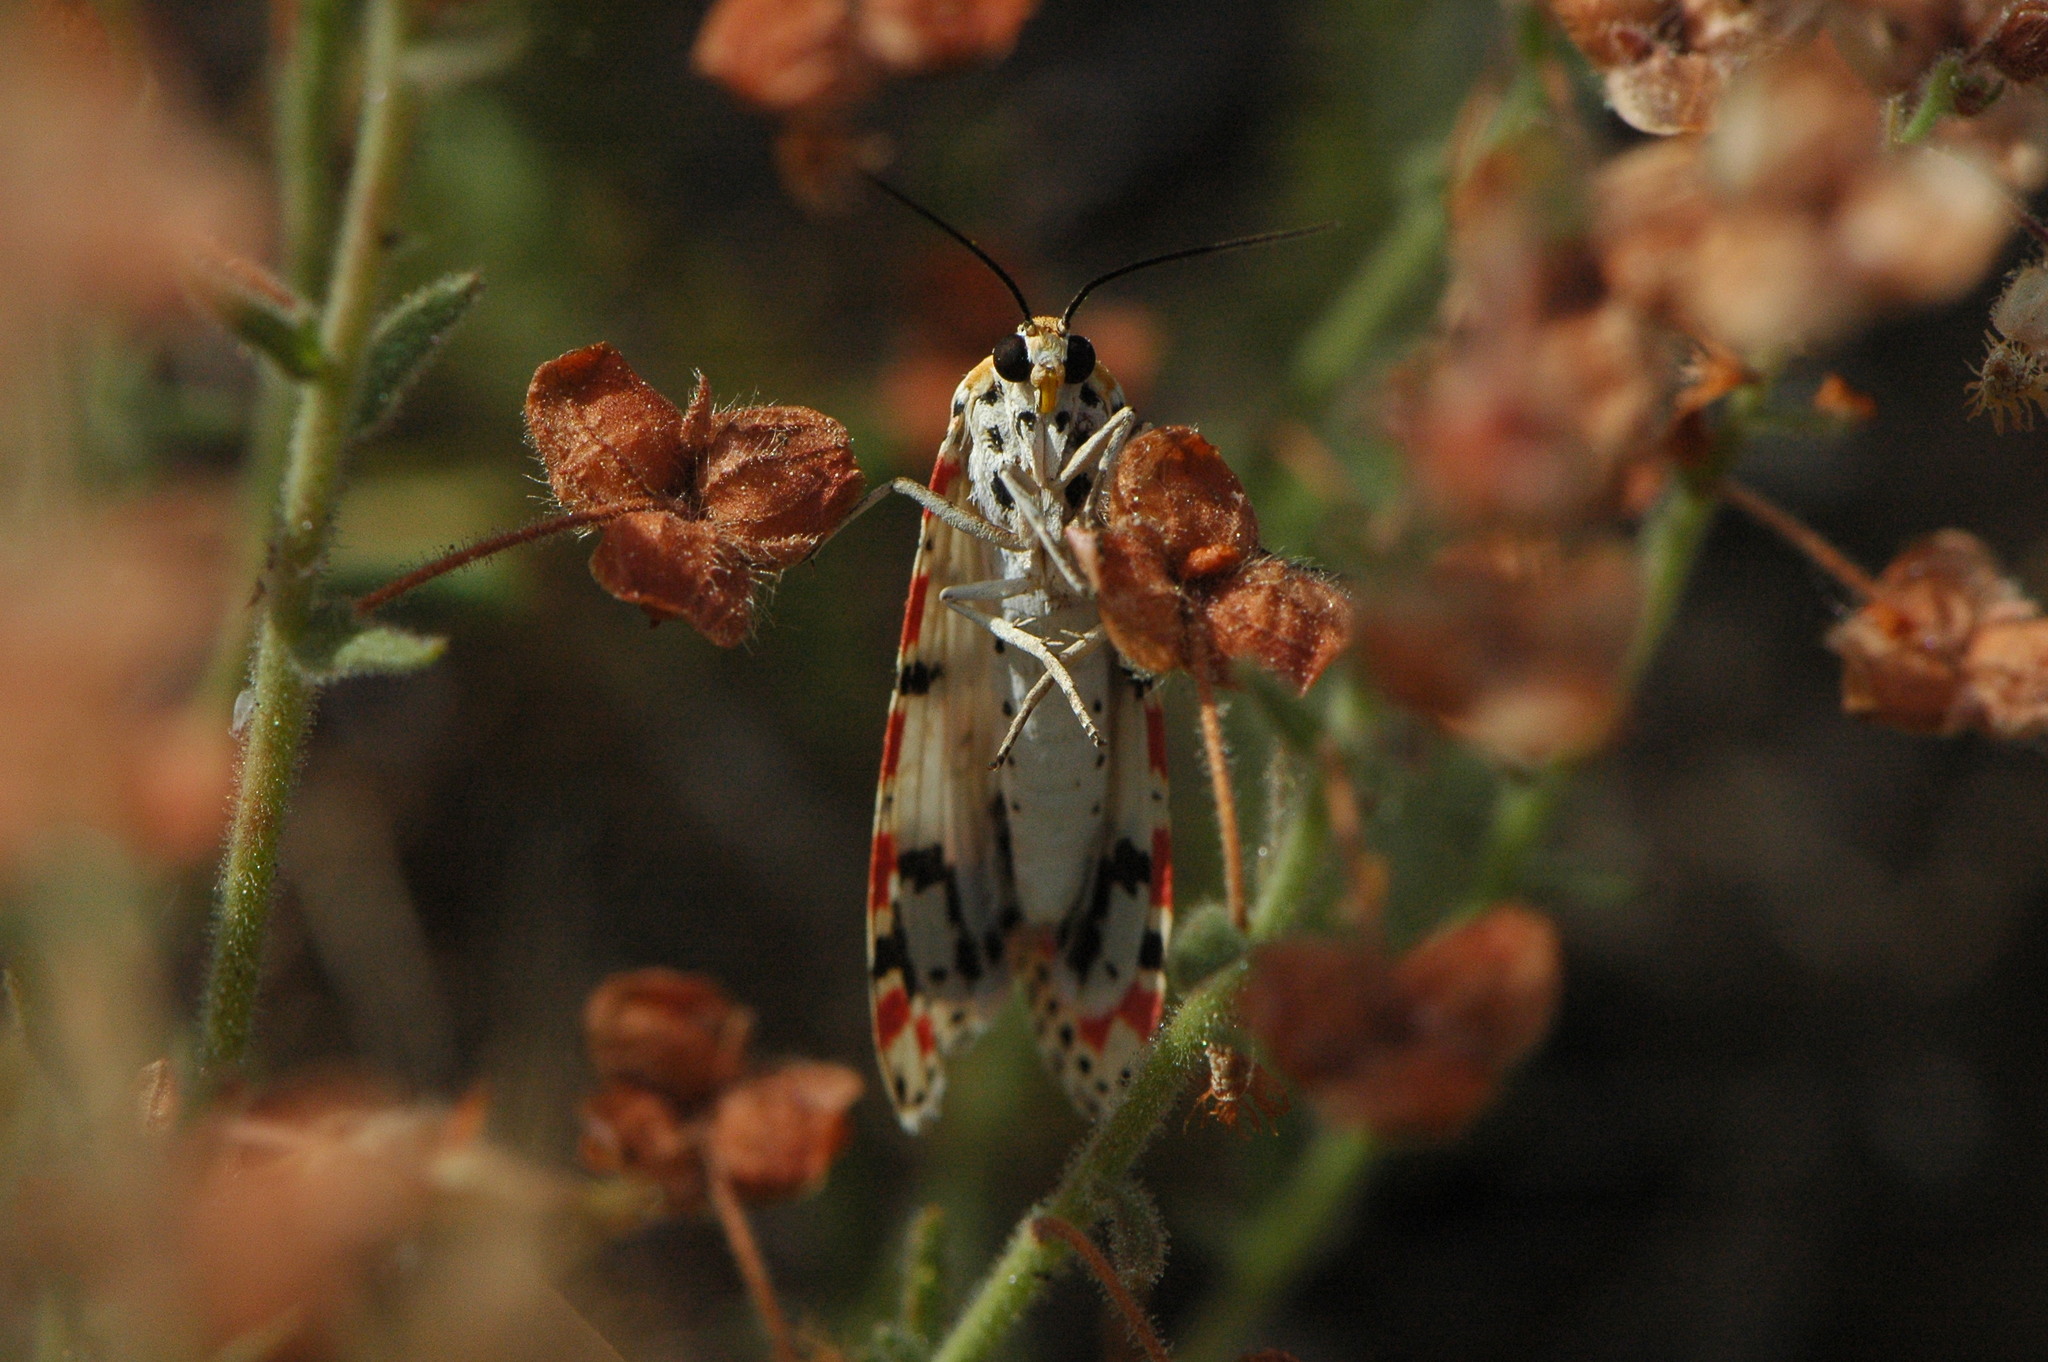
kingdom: Animalia
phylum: Arthropoda
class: Insecta
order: Lepidoptera
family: Erebidae
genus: Utetheisa
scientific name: Utetheisa pulchella
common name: Crimson speckled
